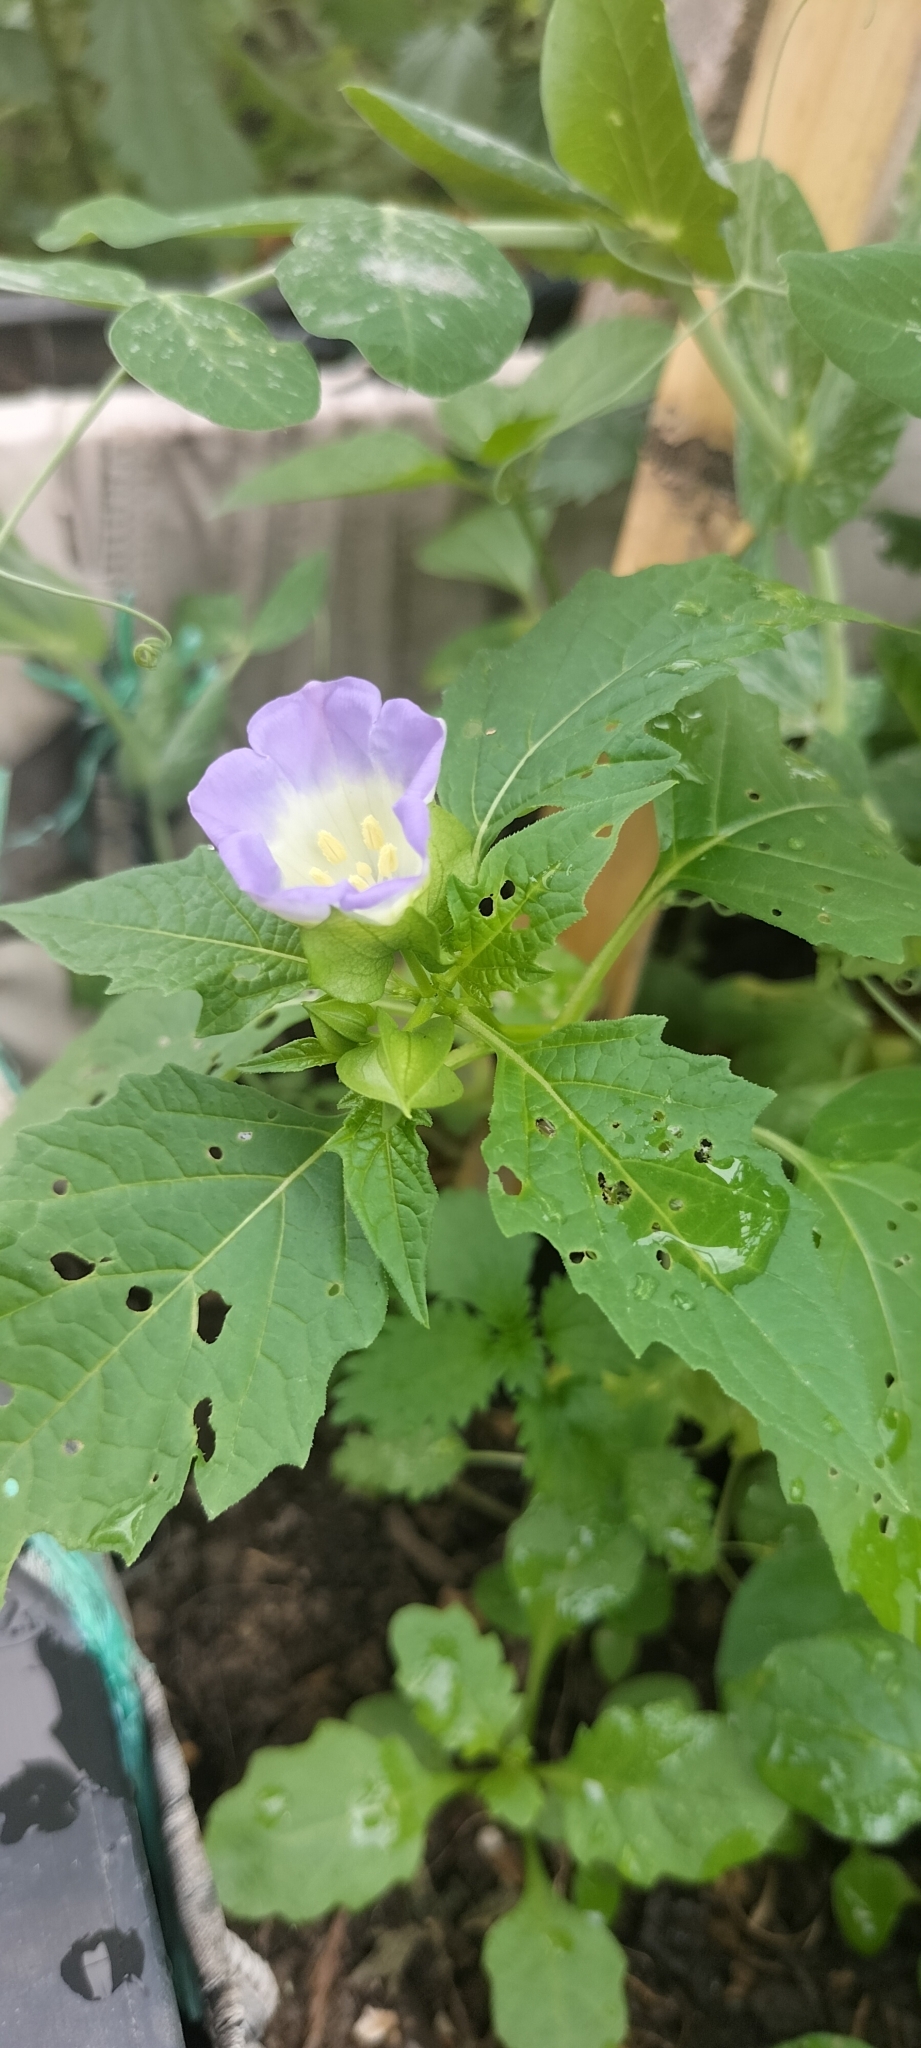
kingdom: Plantae
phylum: Tracheophyta
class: Magnoliopsida
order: Solanales
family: Solanaceae
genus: Nicandra
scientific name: Nicandra physalodes
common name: Apple-of-peru
